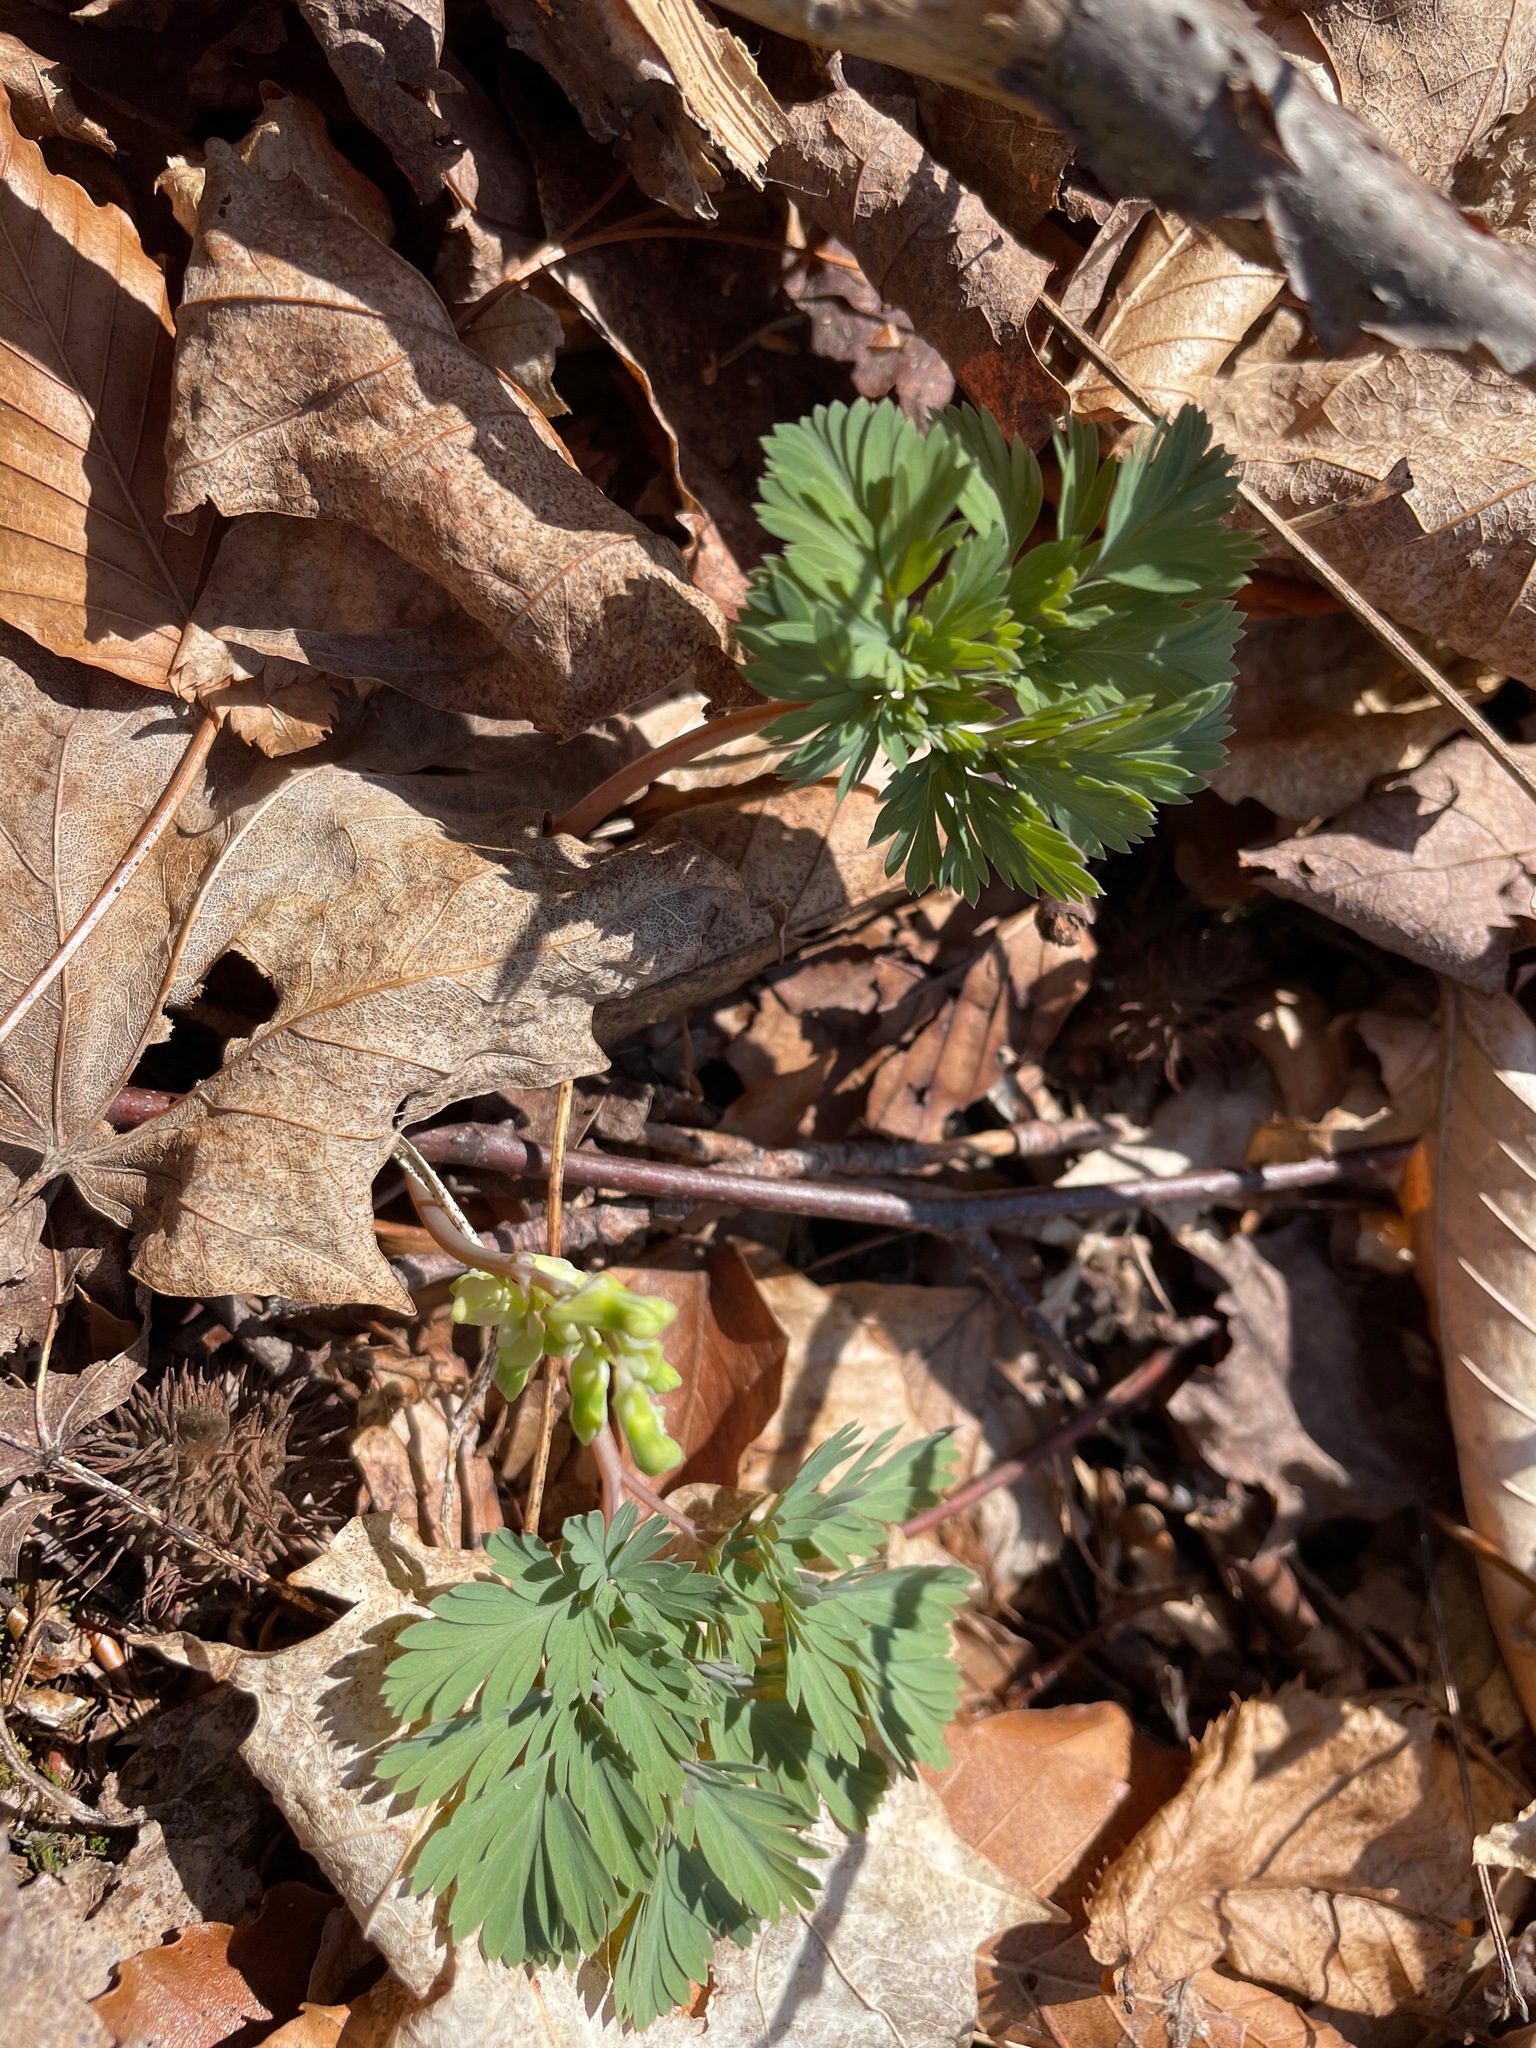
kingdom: Plantae
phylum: Tracheophyta
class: Magnoliopsida
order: Ranunculales
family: Papaveraceae
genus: Dicentra
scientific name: Dicentra cucullaria
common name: Dutchman's breeches
